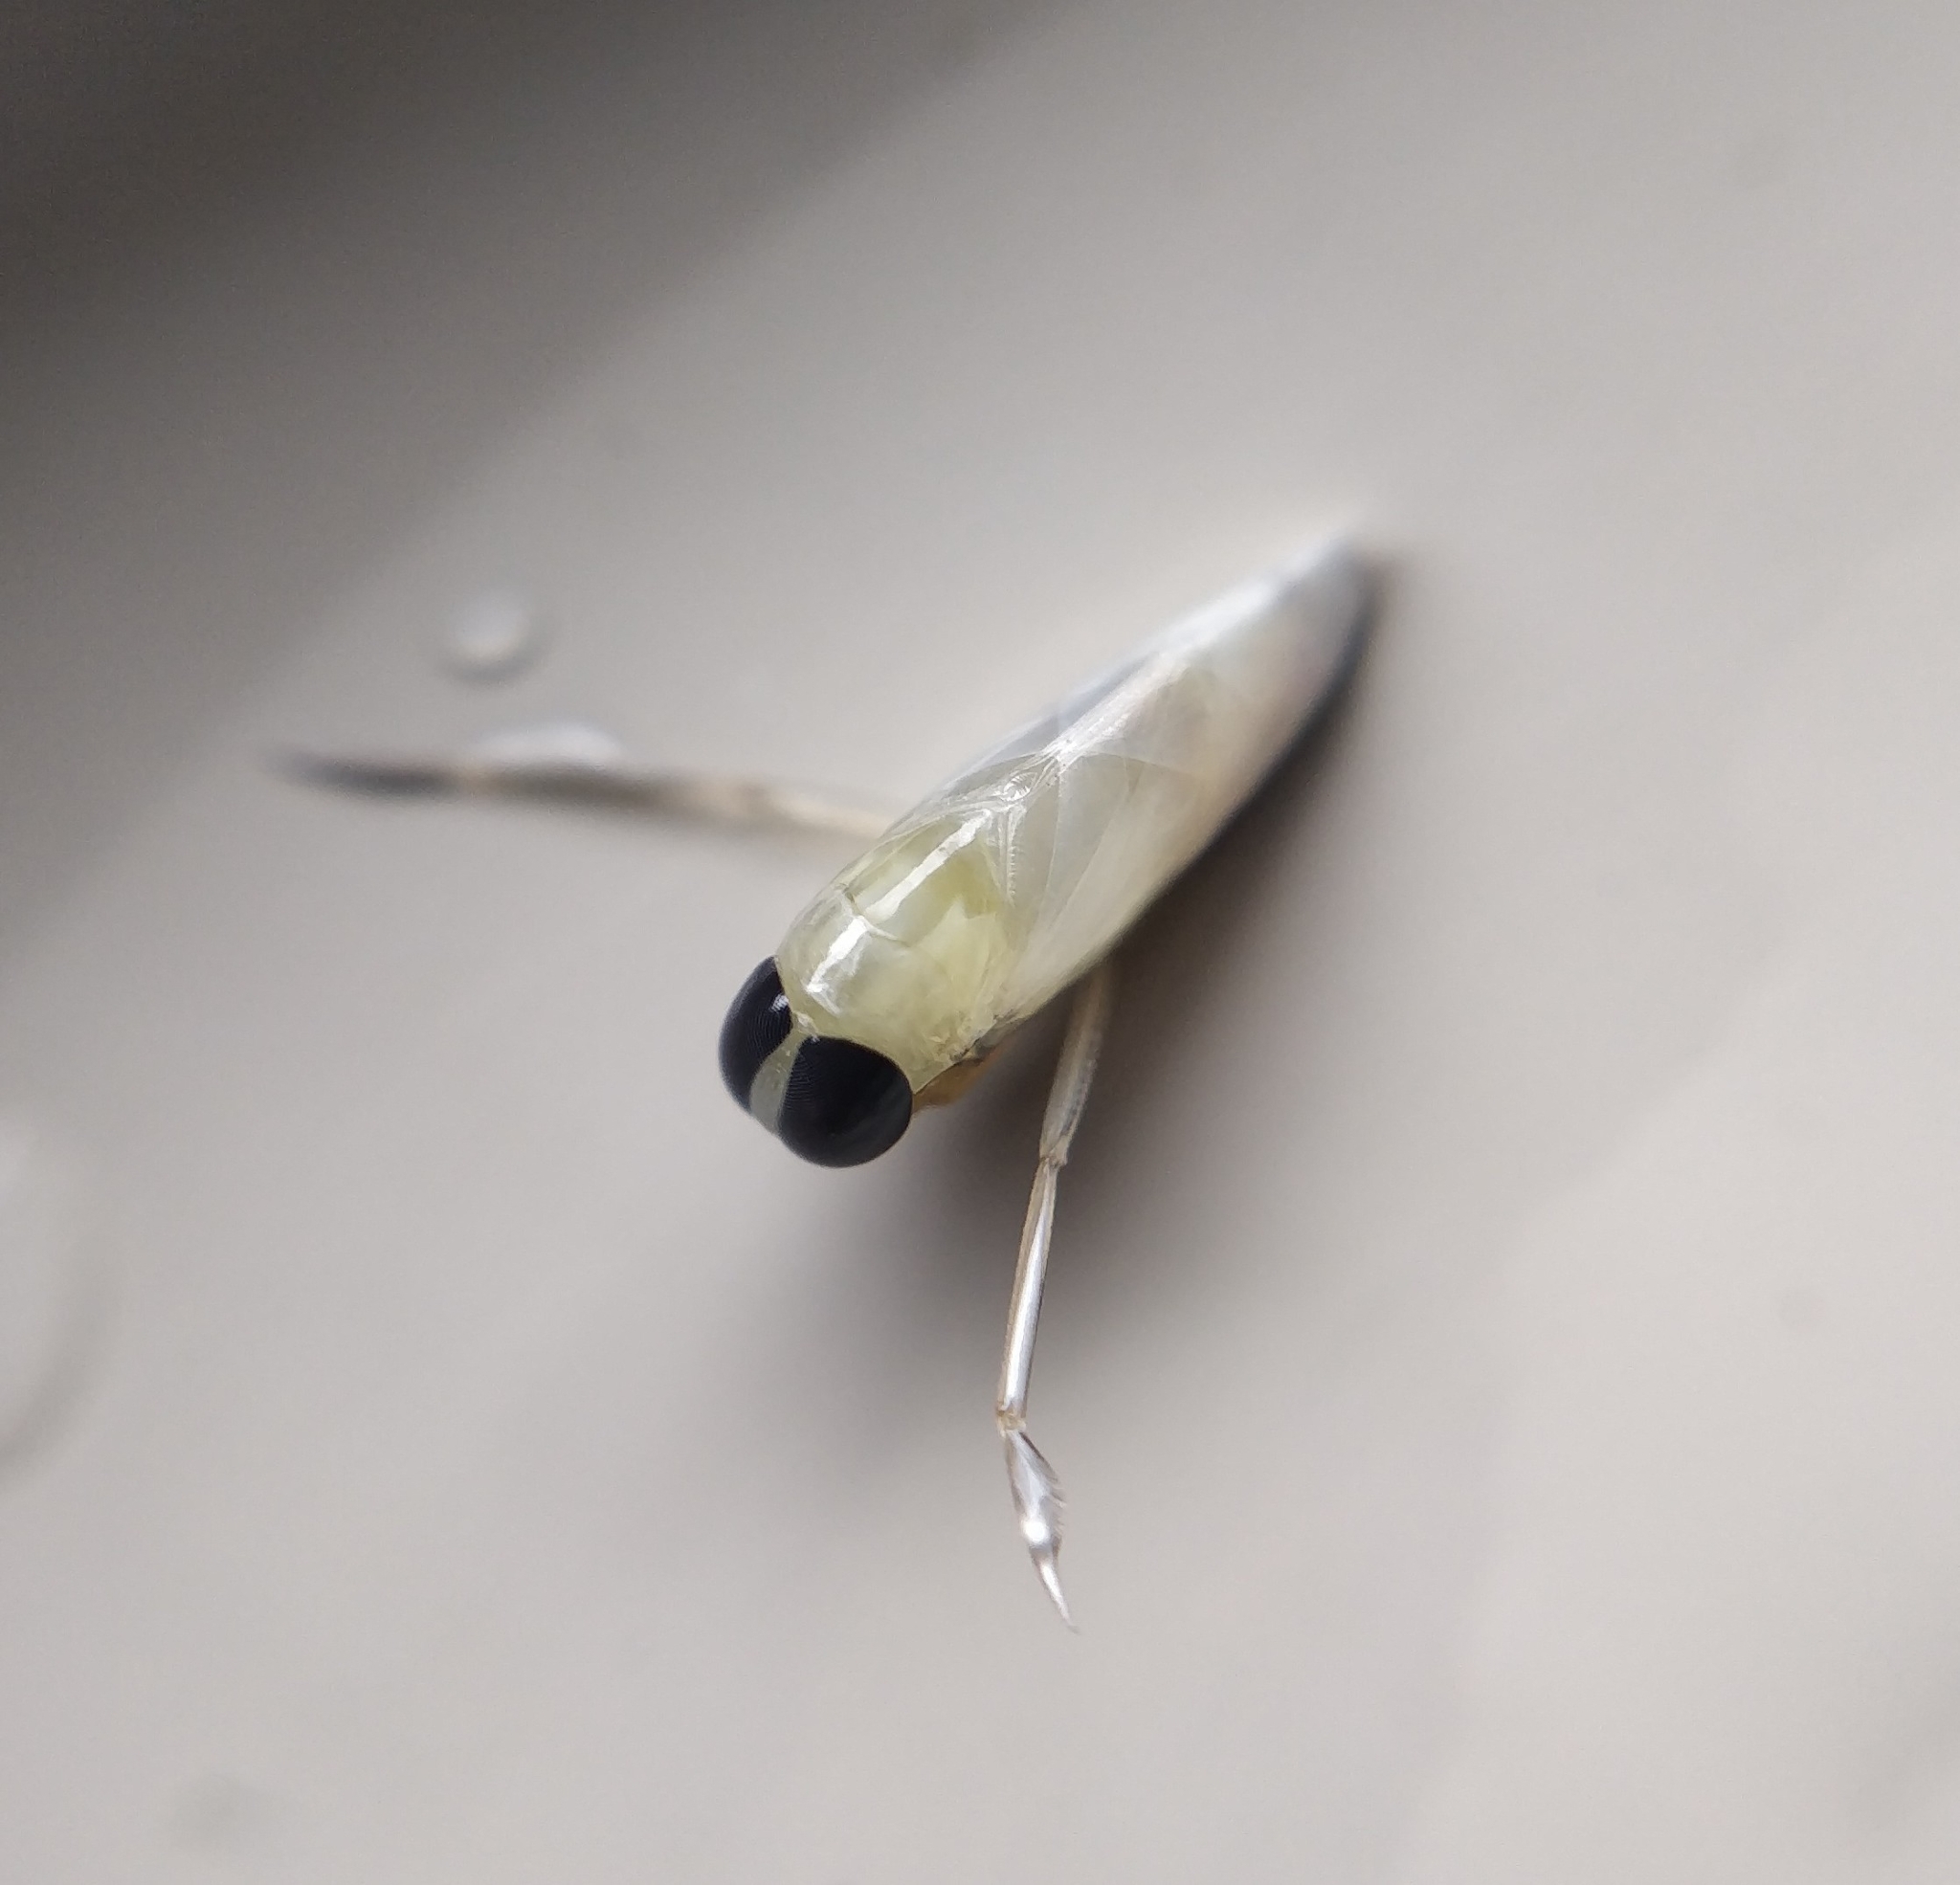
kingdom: Animalia
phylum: Arthropoda
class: Insecta
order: Hemiptera
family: Notonectidae
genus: Anisops
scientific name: Anisops debilis
